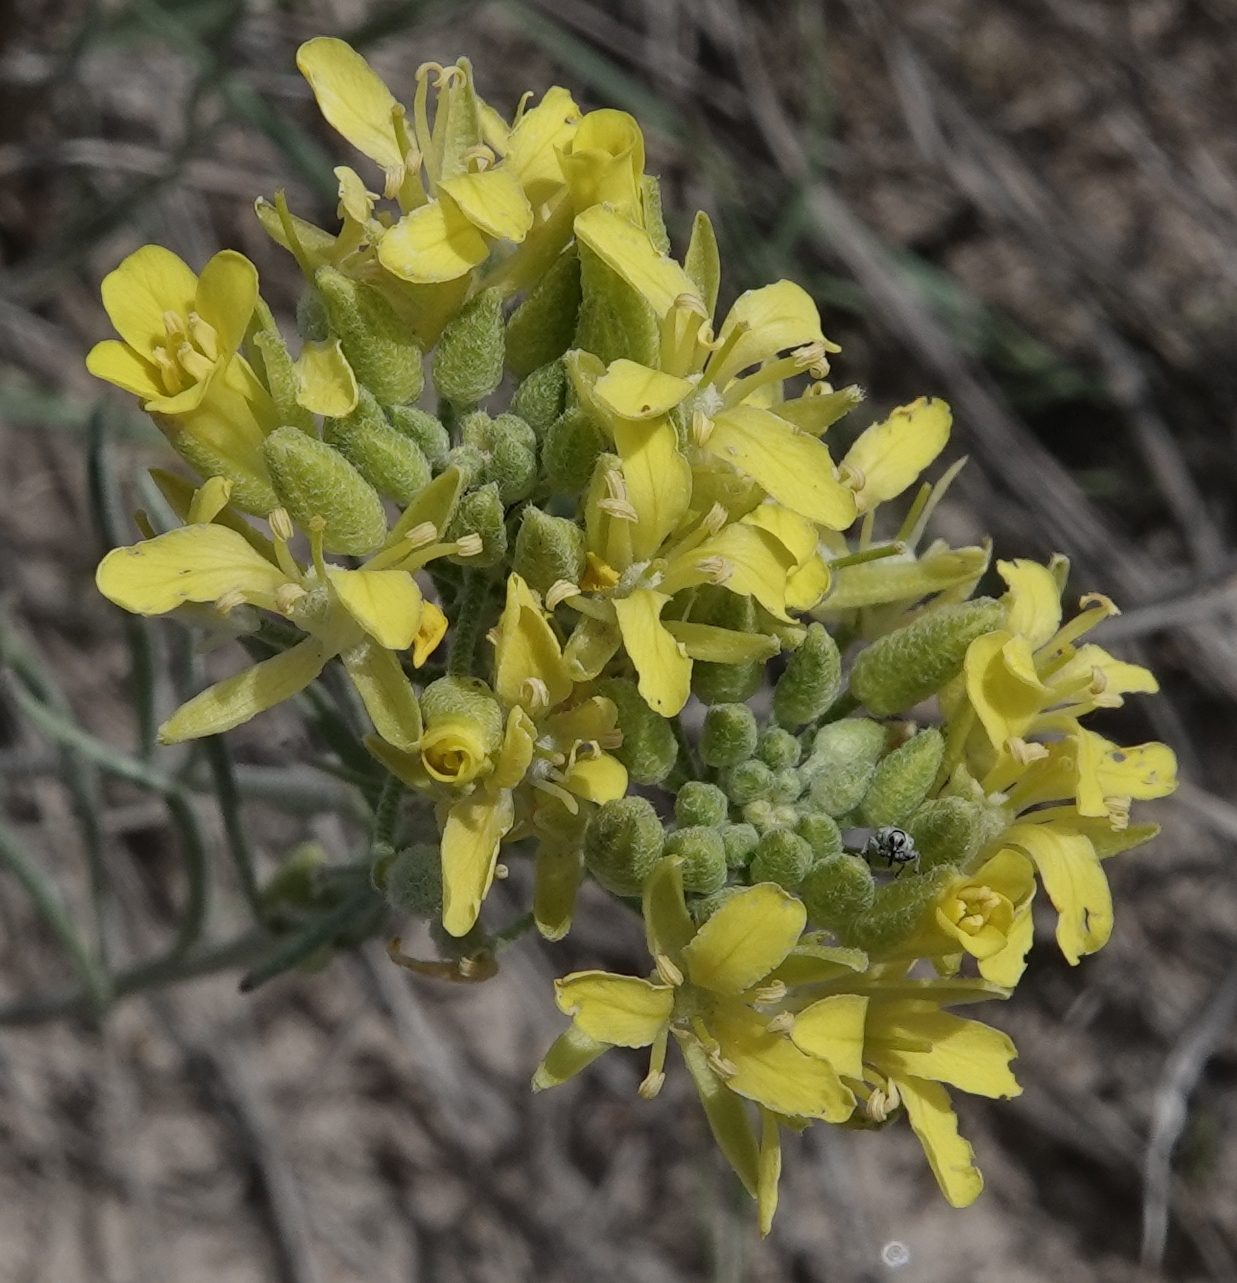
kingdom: Plantae
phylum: Tracheophyta
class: Magnoliopsida
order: Brassicales
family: Brassicaceae
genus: Physaria
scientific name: Physaria arenosa
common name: Great plains bladderpod
